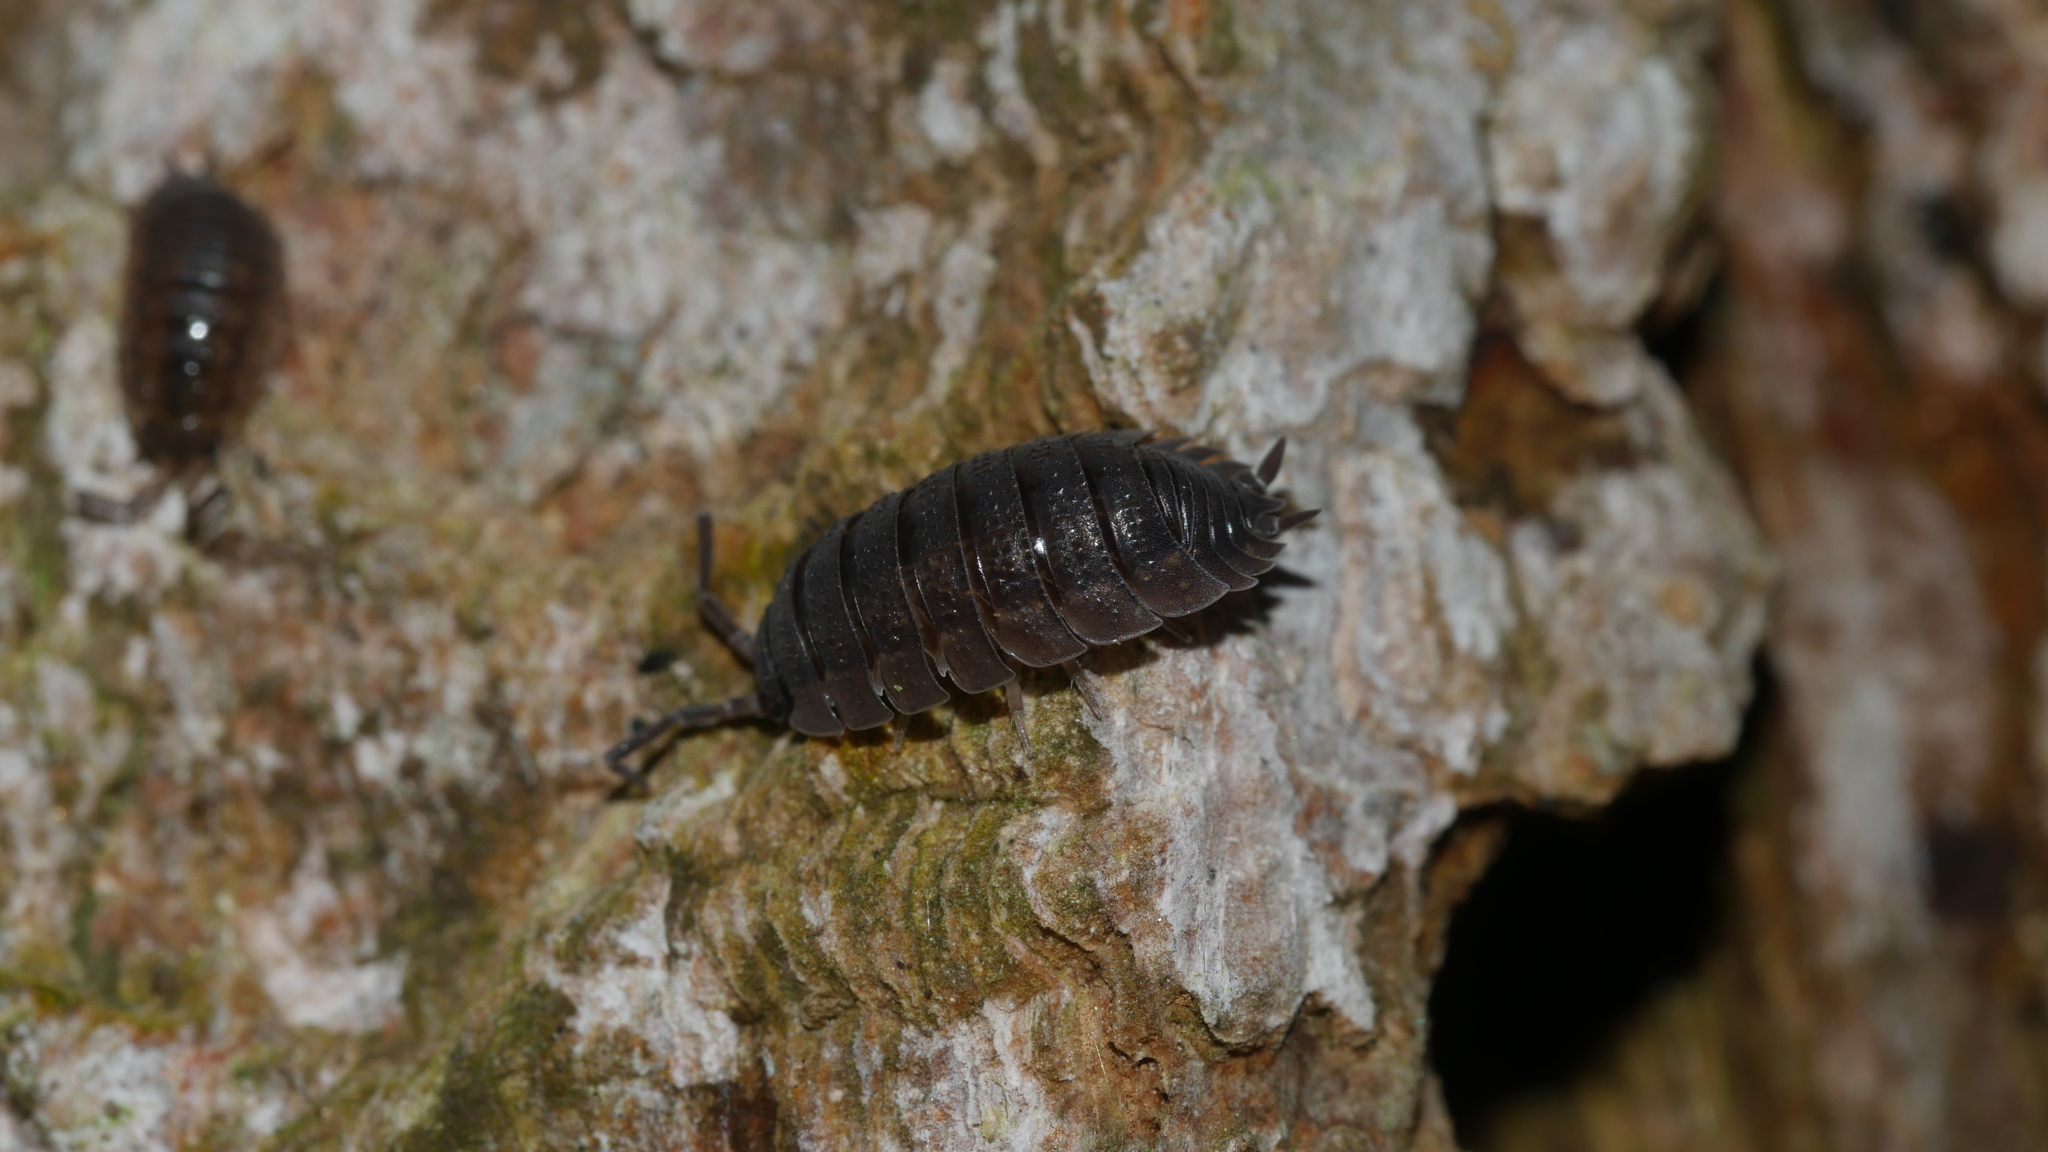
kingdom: Animalia
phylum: Arthropoda
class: Malacostraca
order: Isopoda
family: Porcellionidae
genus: Porcellio
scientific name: Porcellio scaber
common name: Common rough woodlouse
